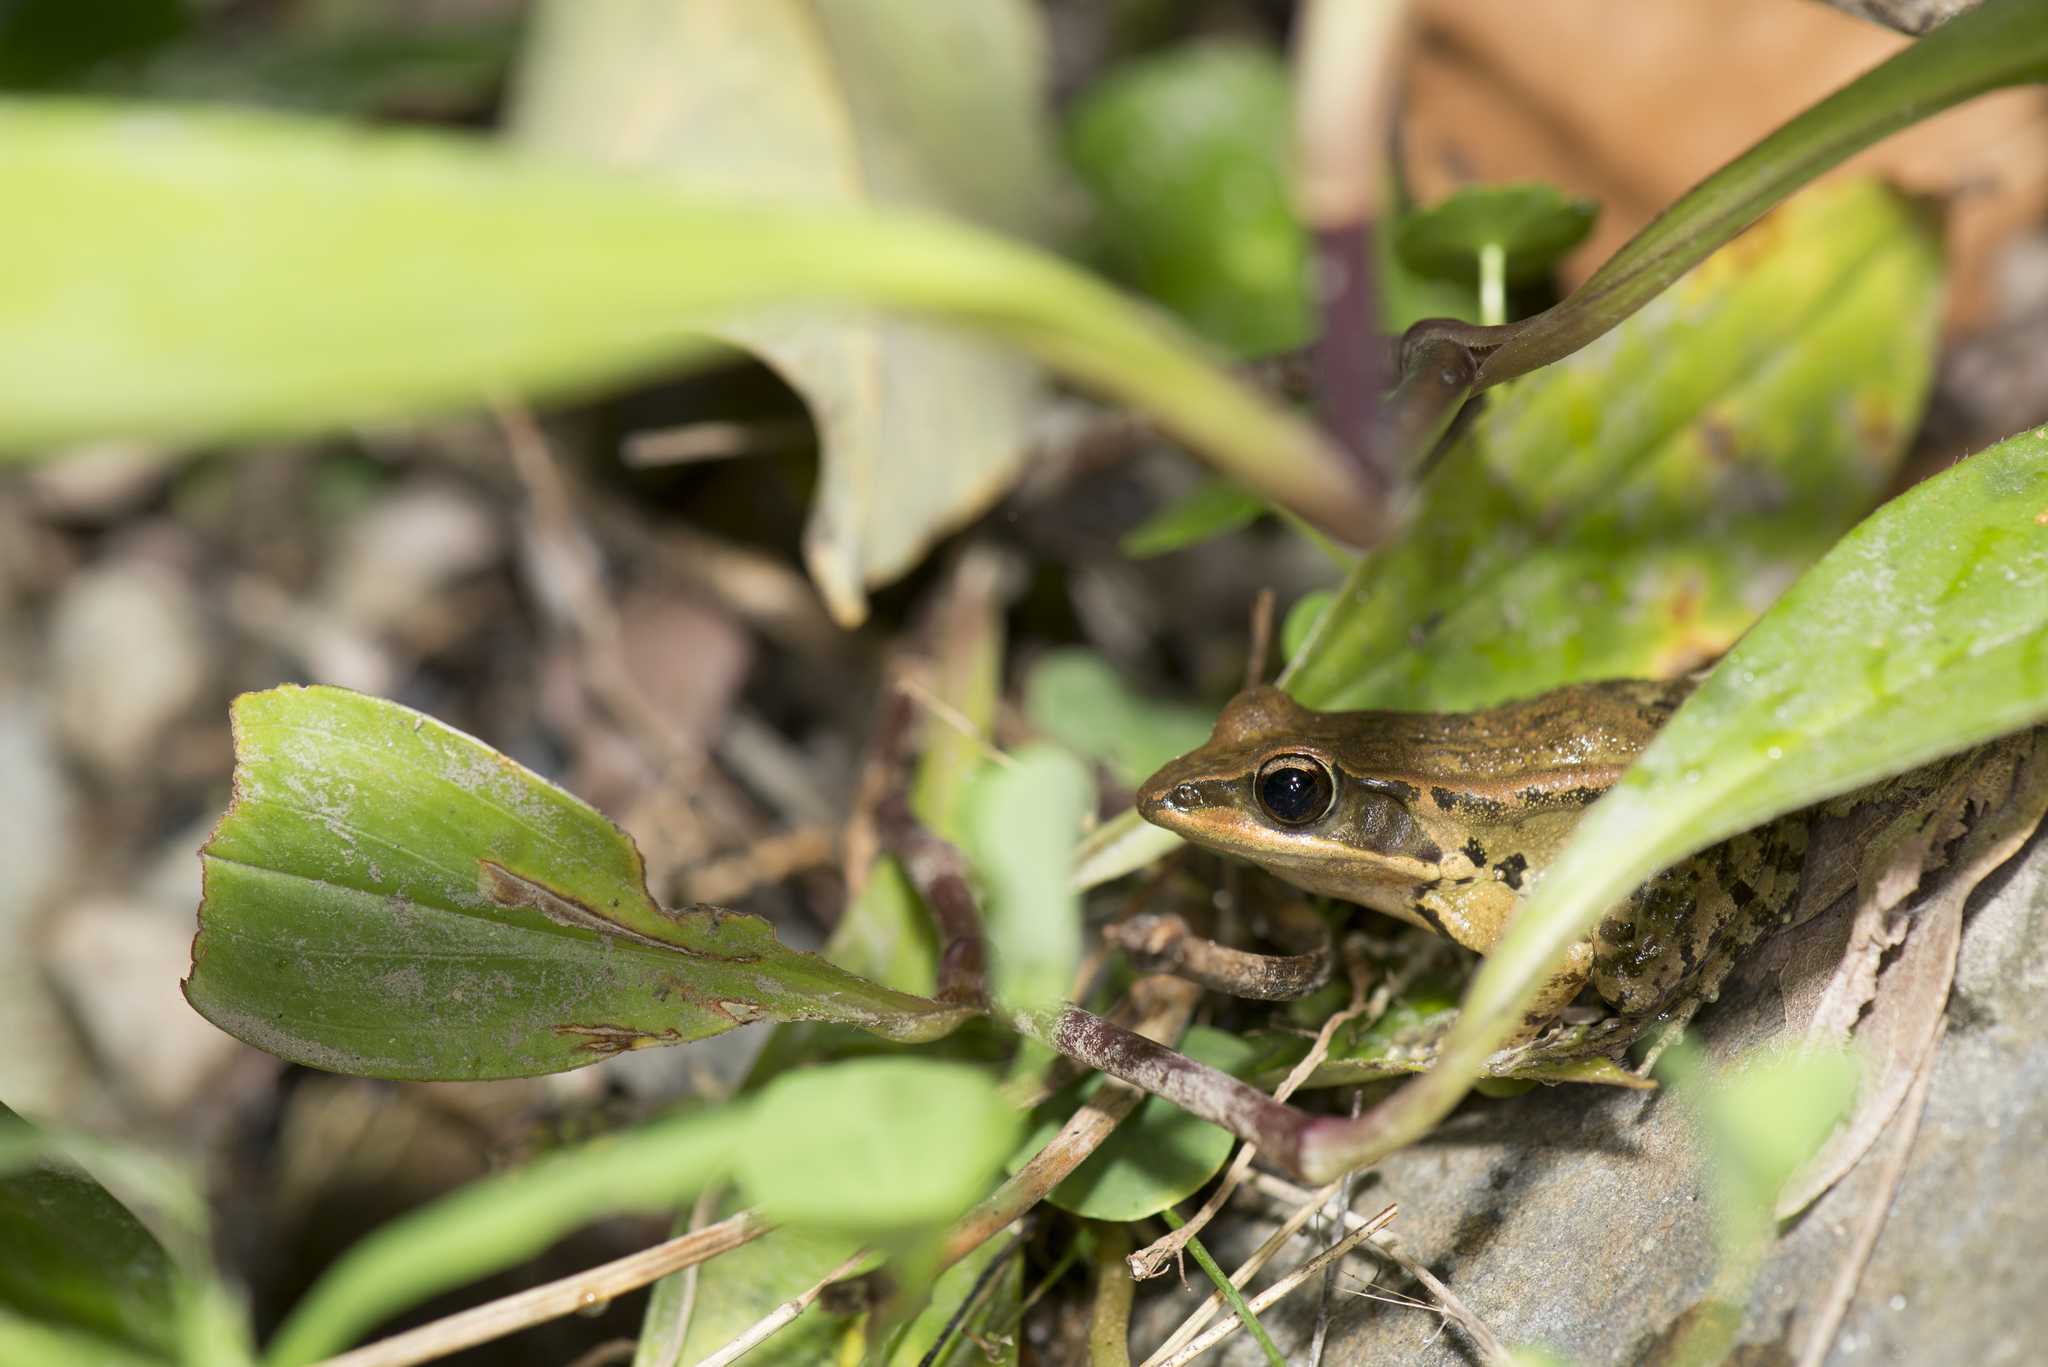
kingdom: Animalia
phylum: Chordata
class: Amphibia
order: Anura
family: Ranidae
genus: Hylarana
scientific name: Hylarana latouchii
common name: Broad-folded frog
